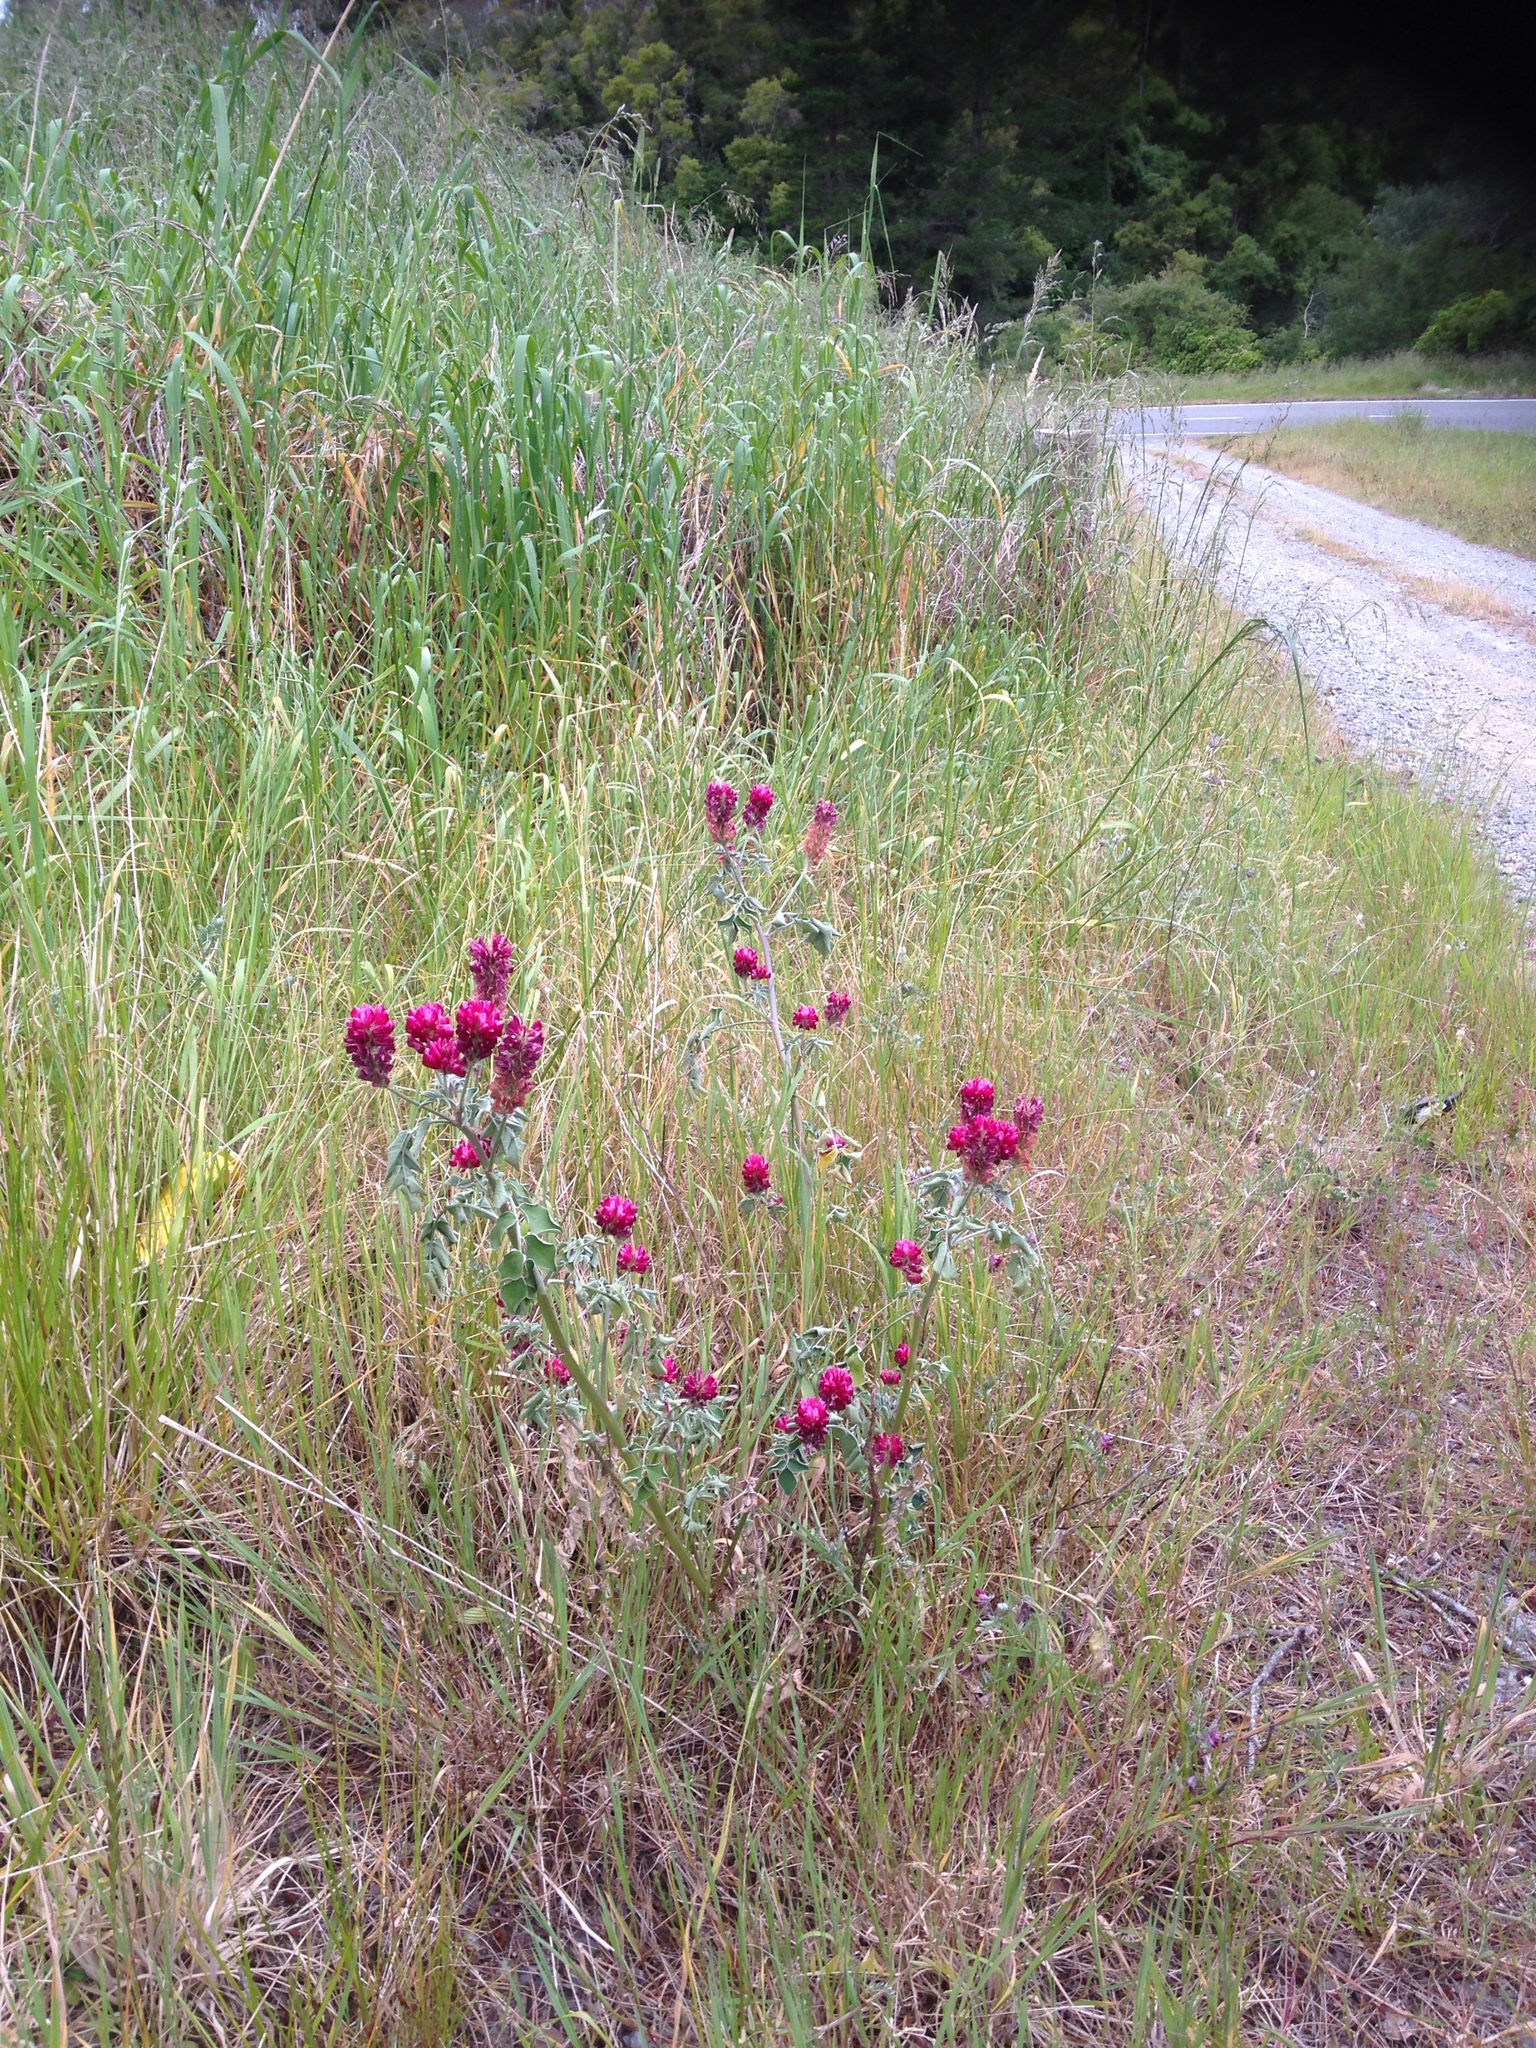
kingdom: Plantae
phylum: Tracheophyta
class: Magnoliopsida
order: Fabales
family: Fabaceae
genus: Sulla
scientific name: Sulla coronaria
